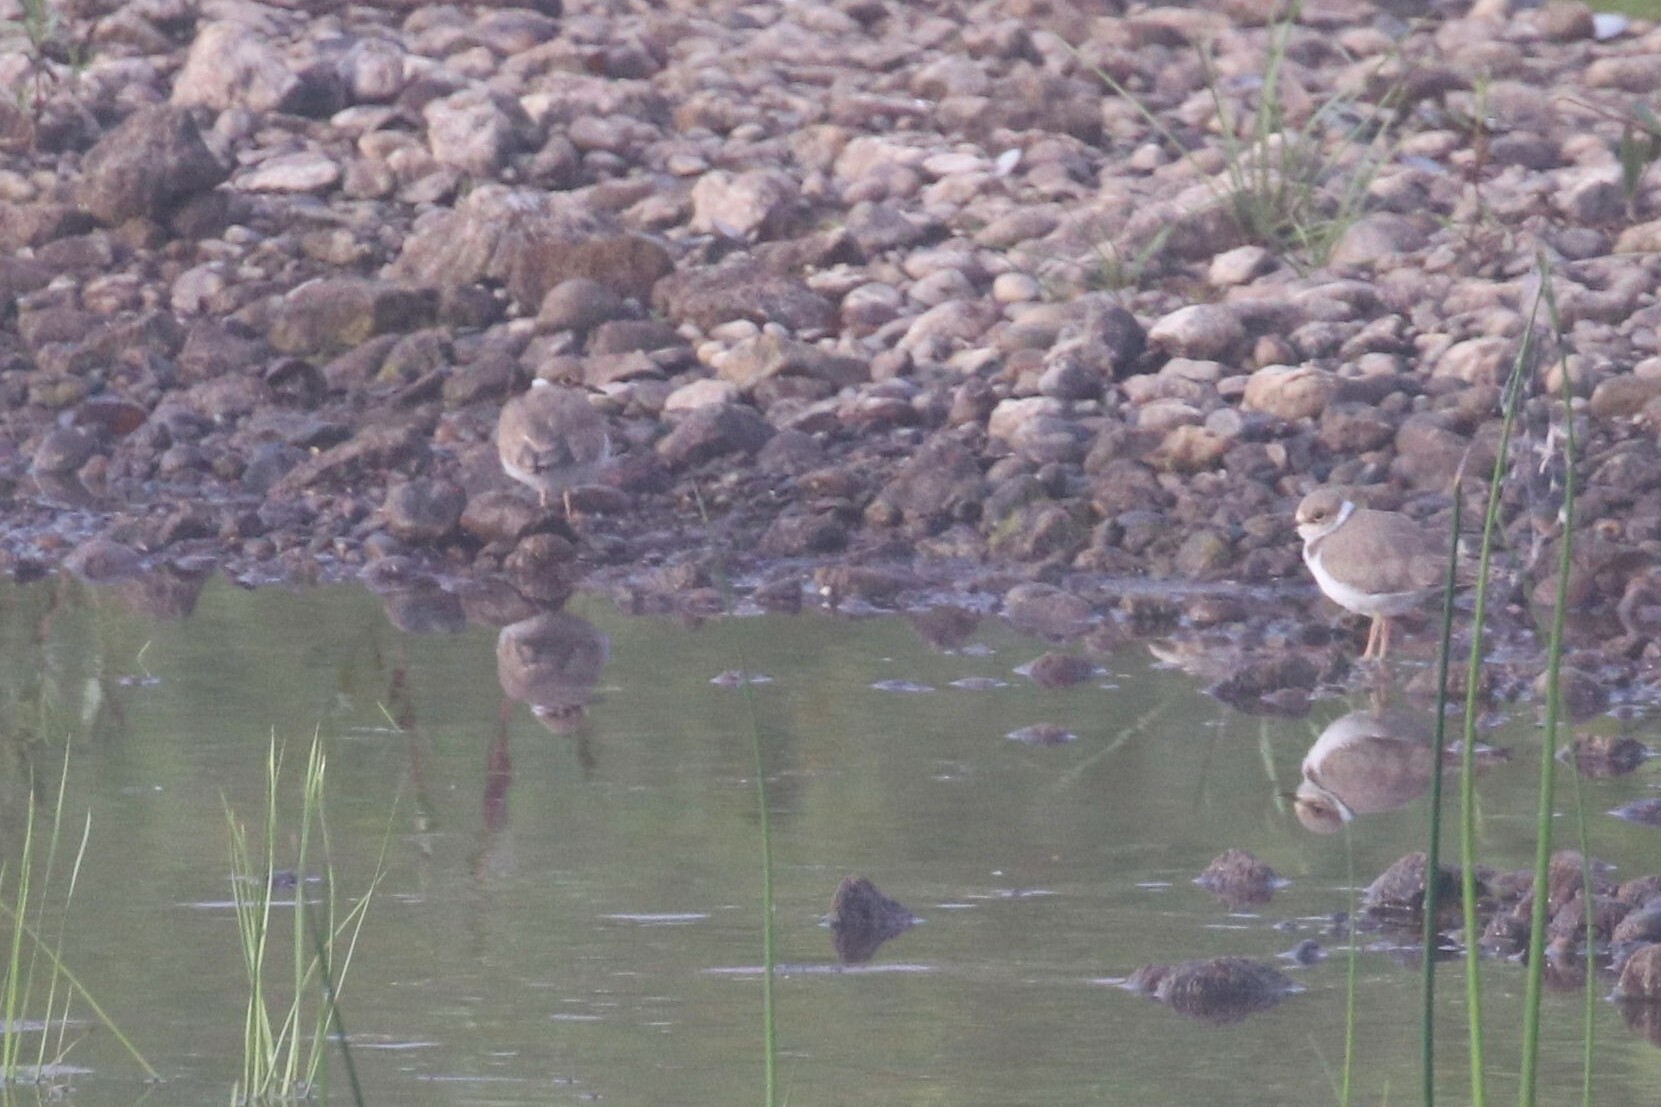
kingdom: Animalia
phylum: Chordata
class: Aves
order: Charadriiformes
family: Charadriidae
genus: Charadrius
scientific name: Charadrius dubius
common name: Little ringed plover
